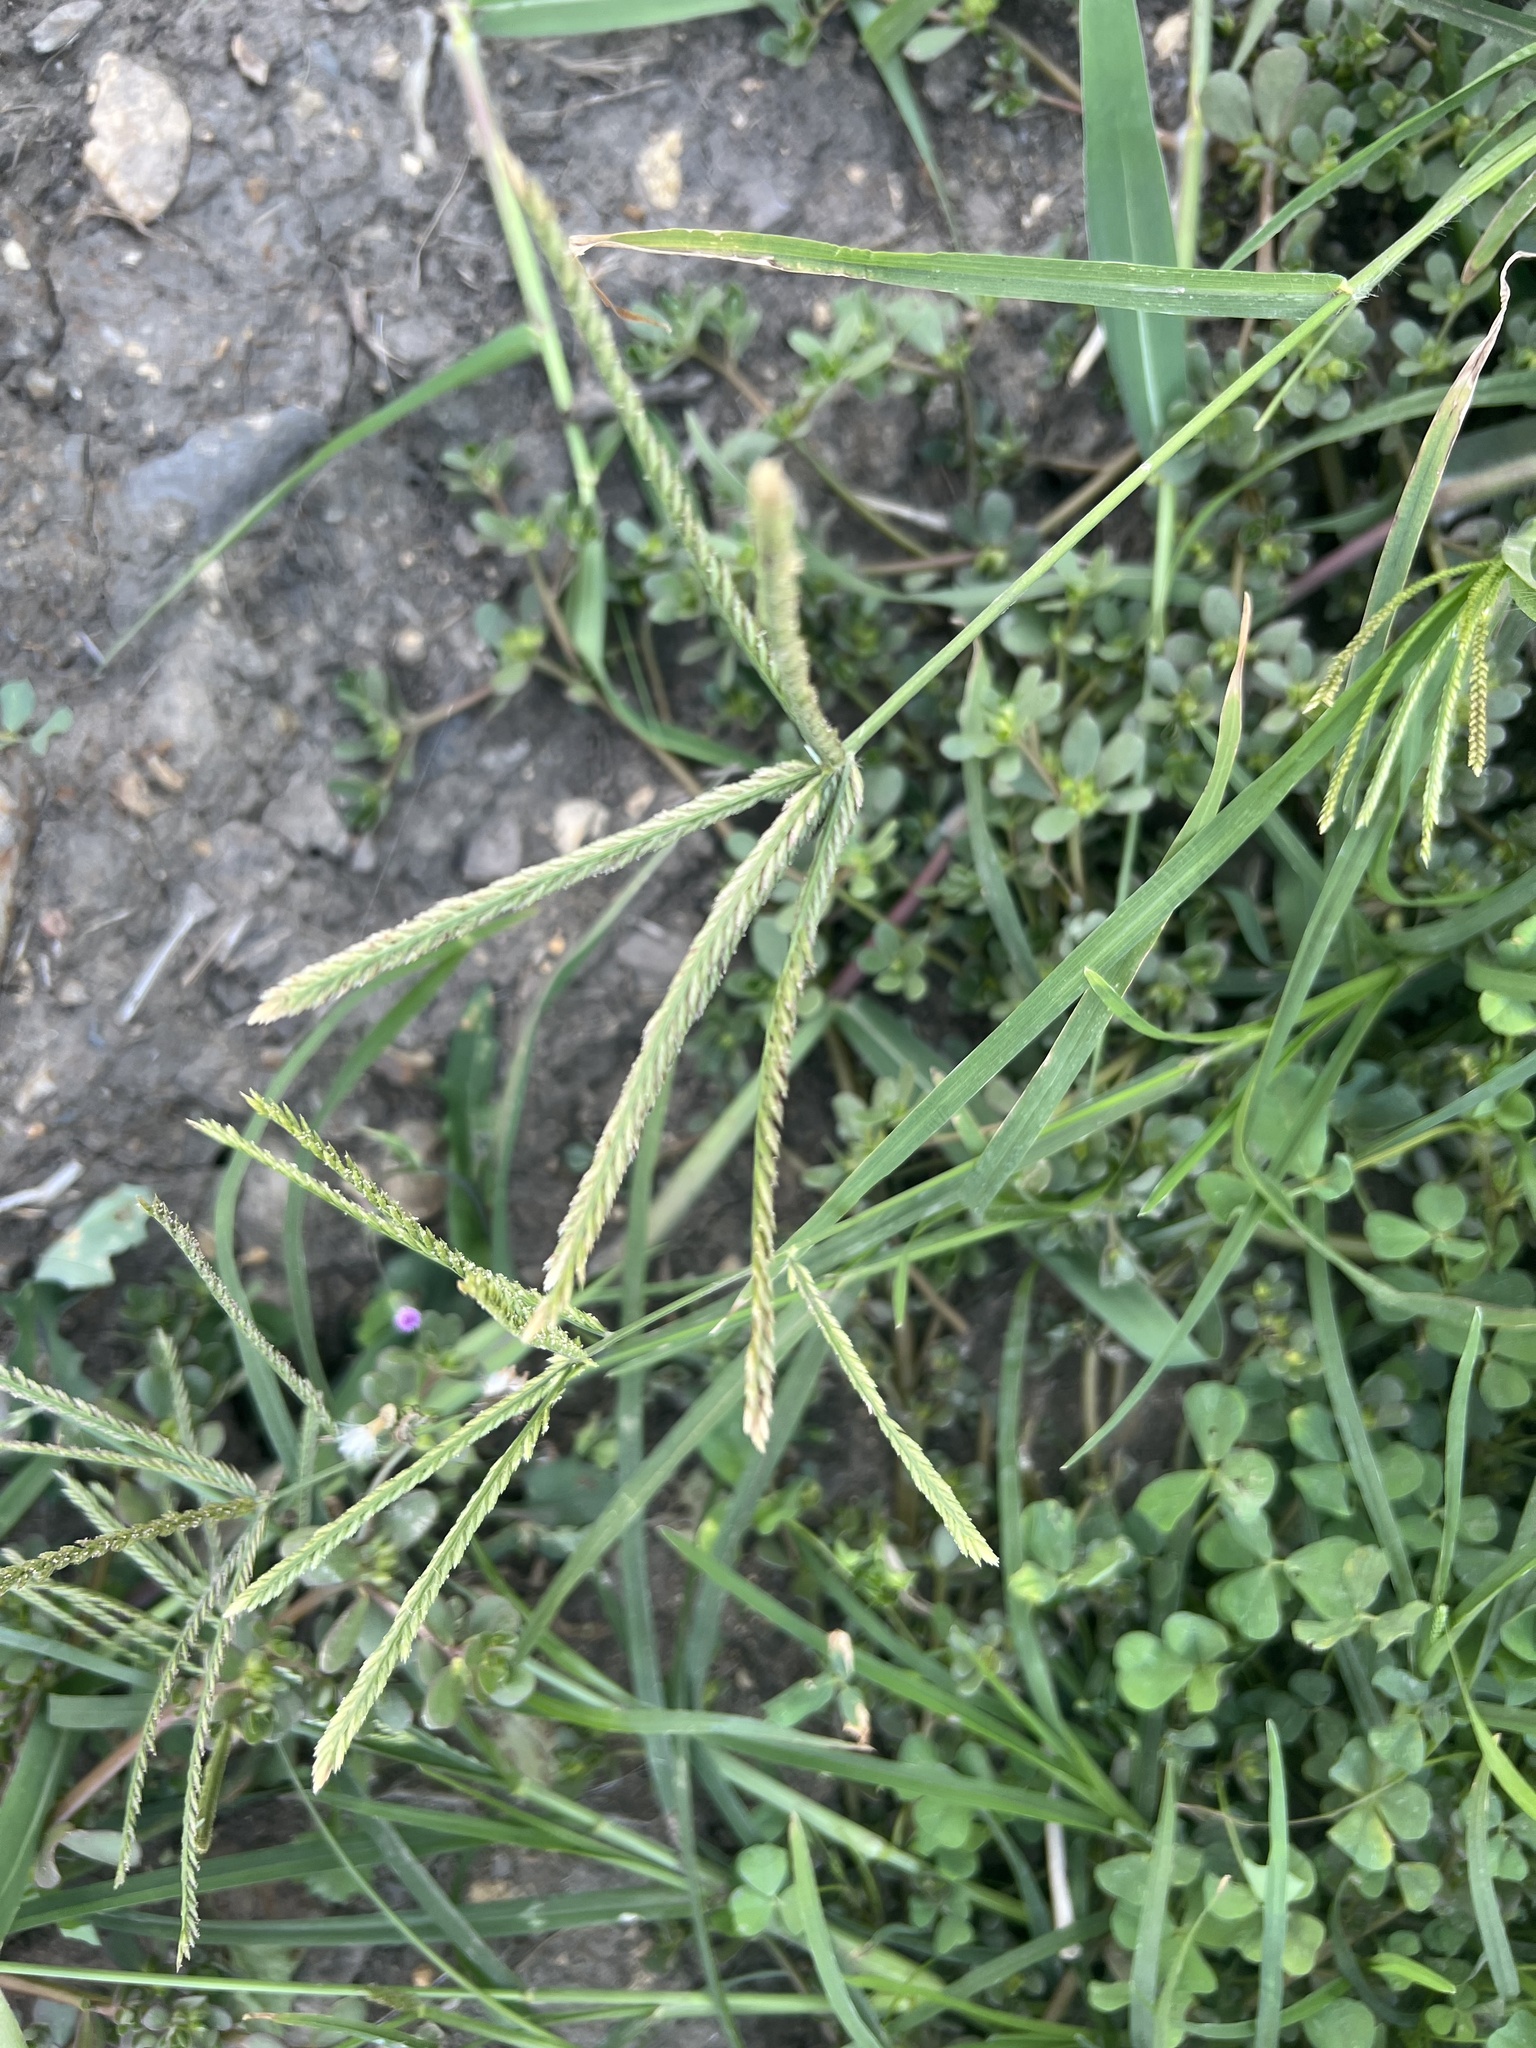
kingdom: Plantae
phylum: Tracheophyta
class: Liliopsida
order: Poales
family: Poaceae
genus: Eleusine
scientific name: Eleusine indica
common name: Yard-grass
